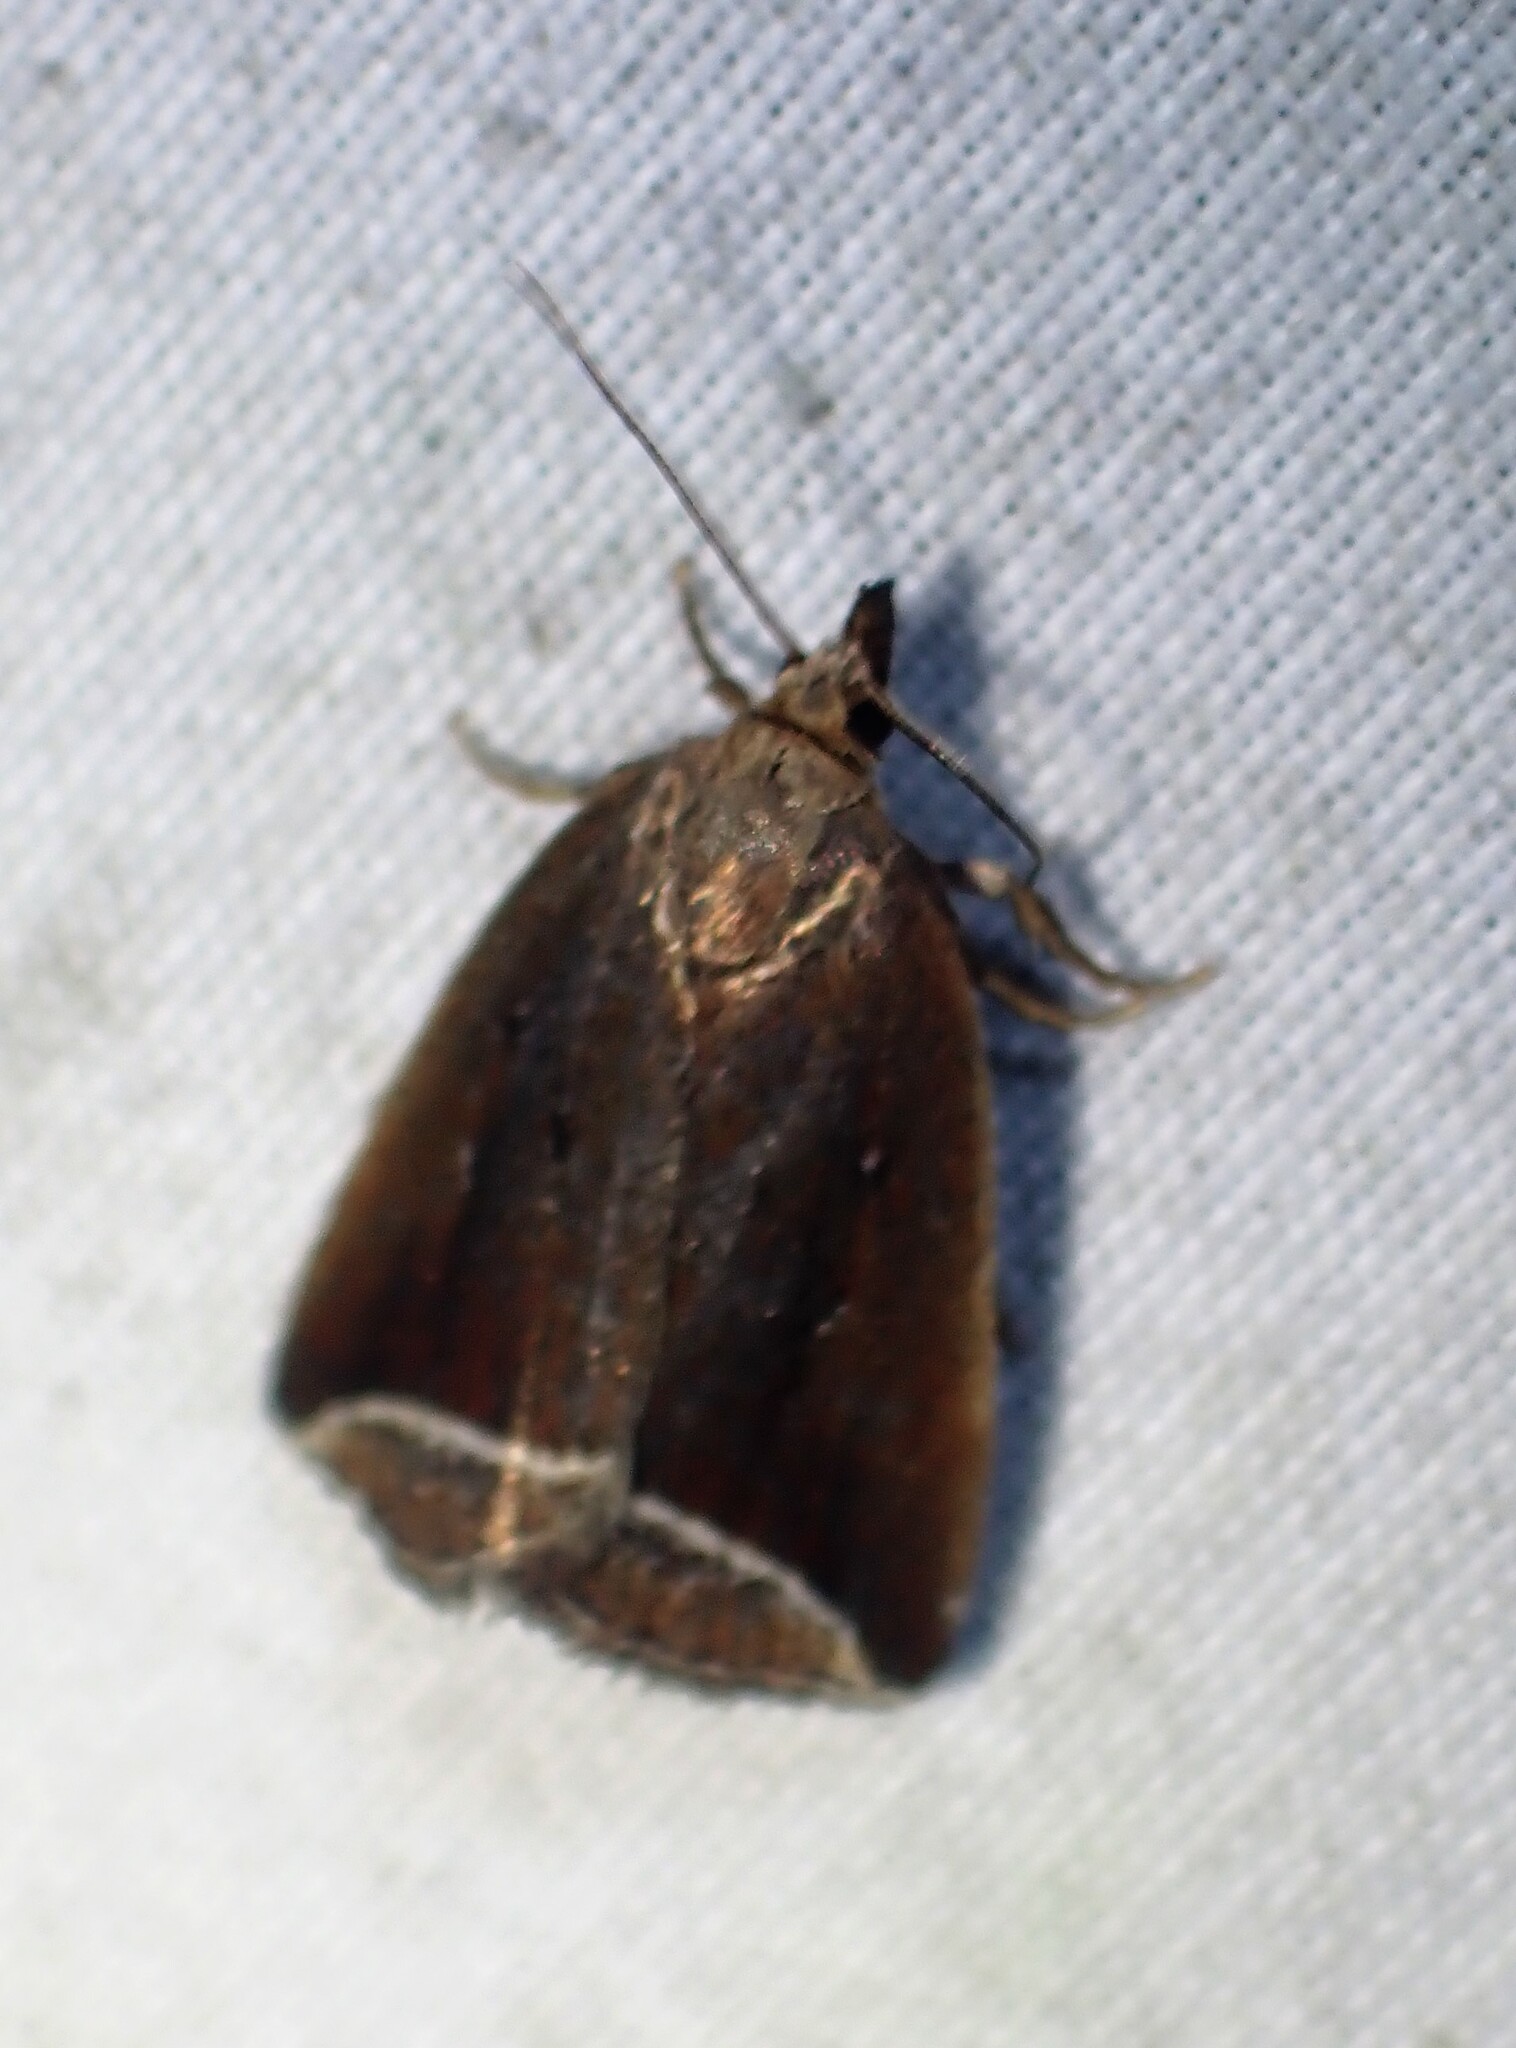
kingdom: Animalia
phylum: Arthropoda
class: Insecta
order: Lepidoptera
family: Erebidae
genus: Capis
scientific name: Capis curvata
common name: Curved halter moth
